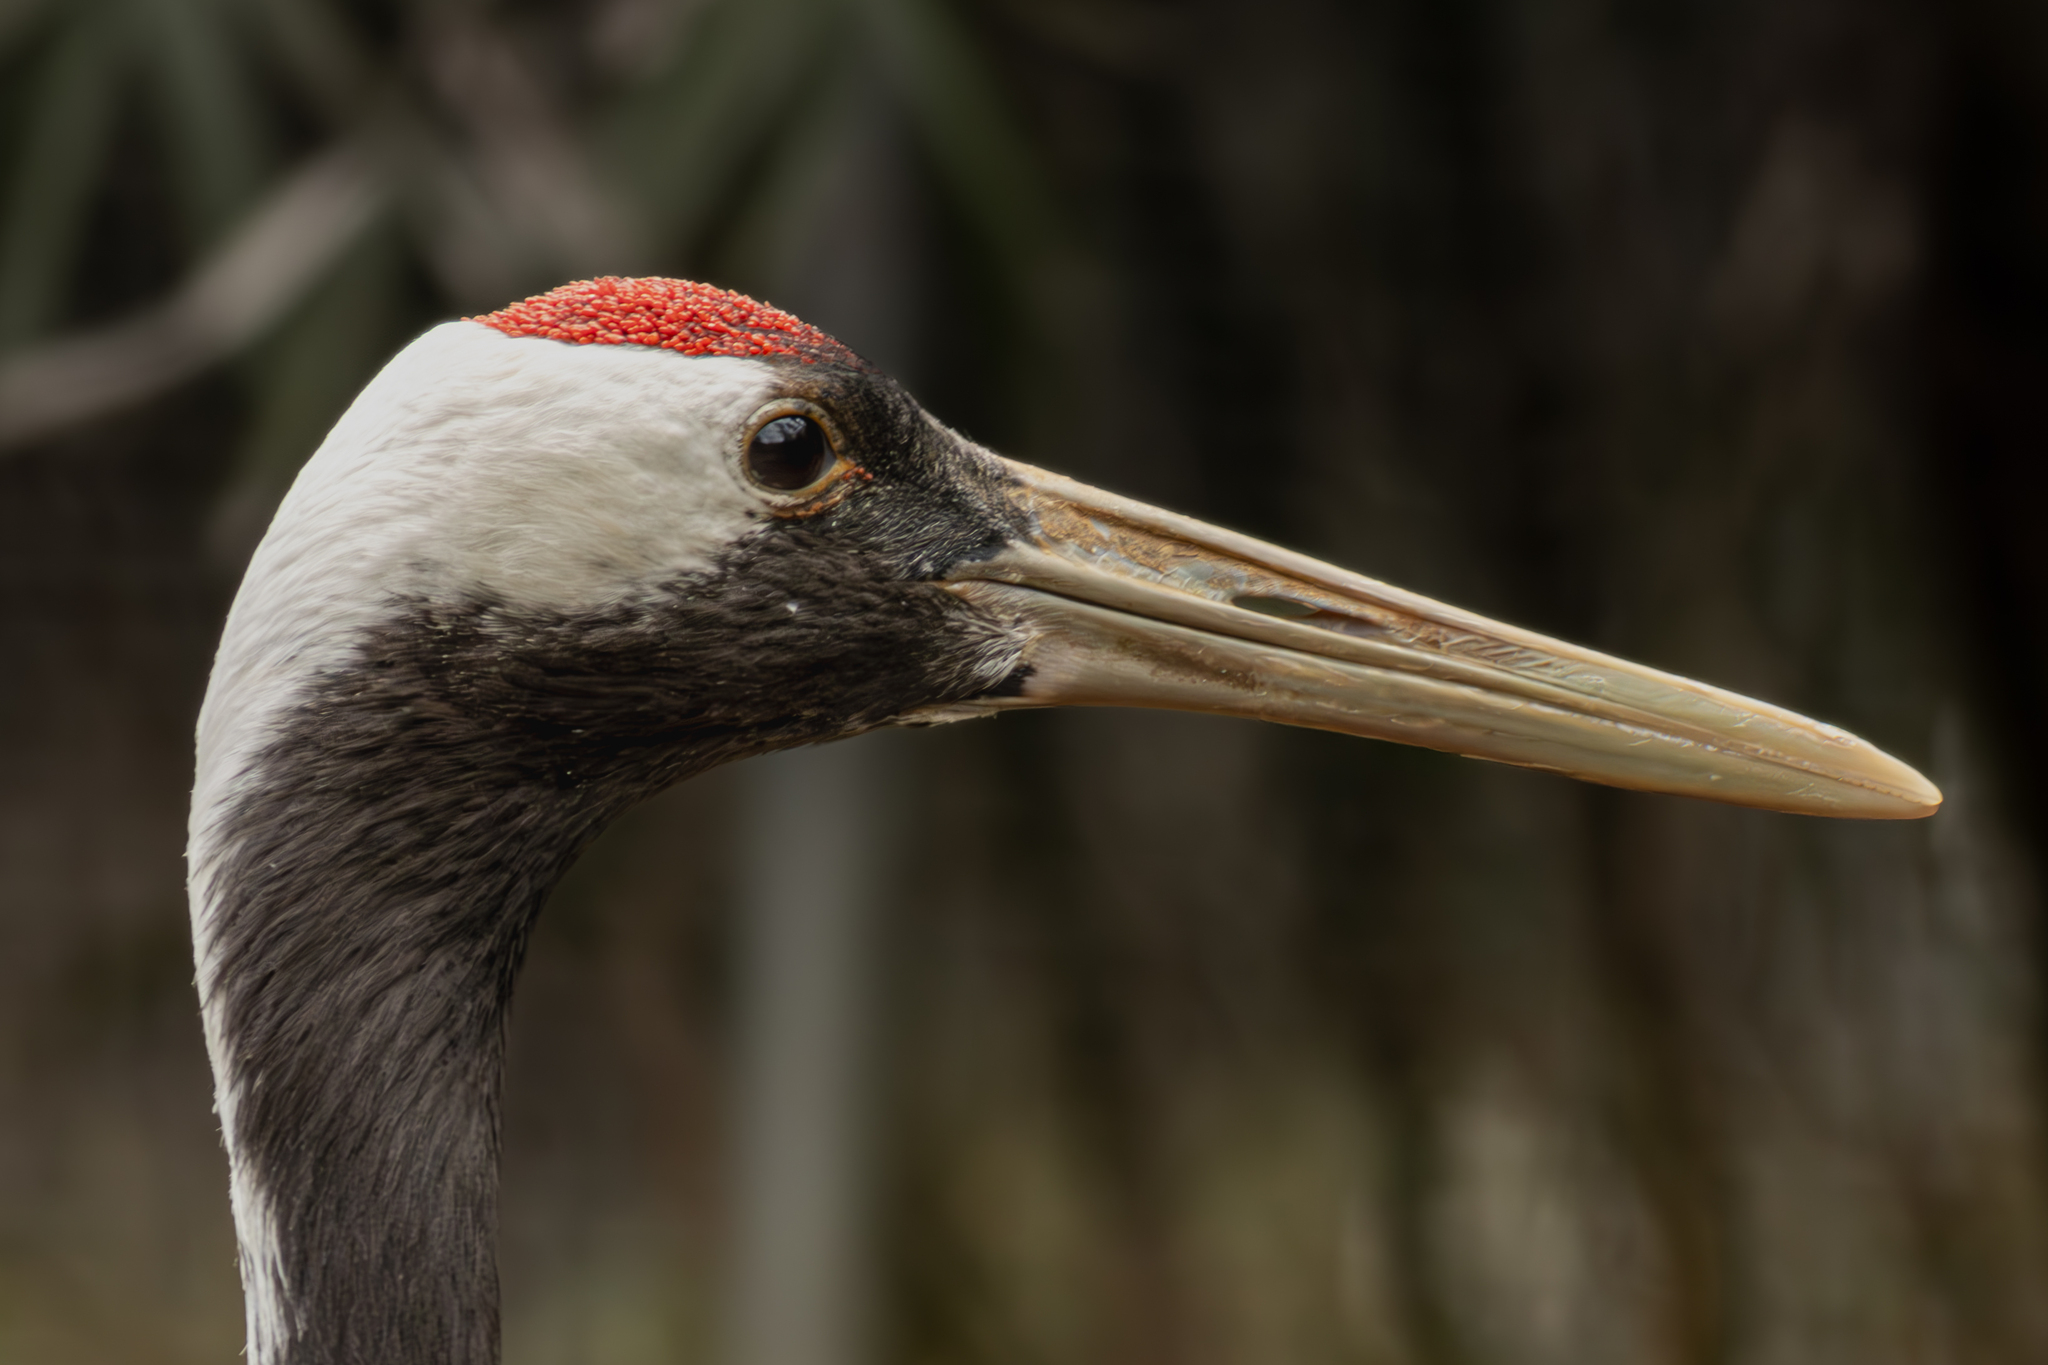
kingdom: Animalia
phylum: Chordata
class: Aves
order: Gruiformes
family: Gruidae
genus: Grus
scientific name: Grus japonensis
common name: Red-crowned crane
